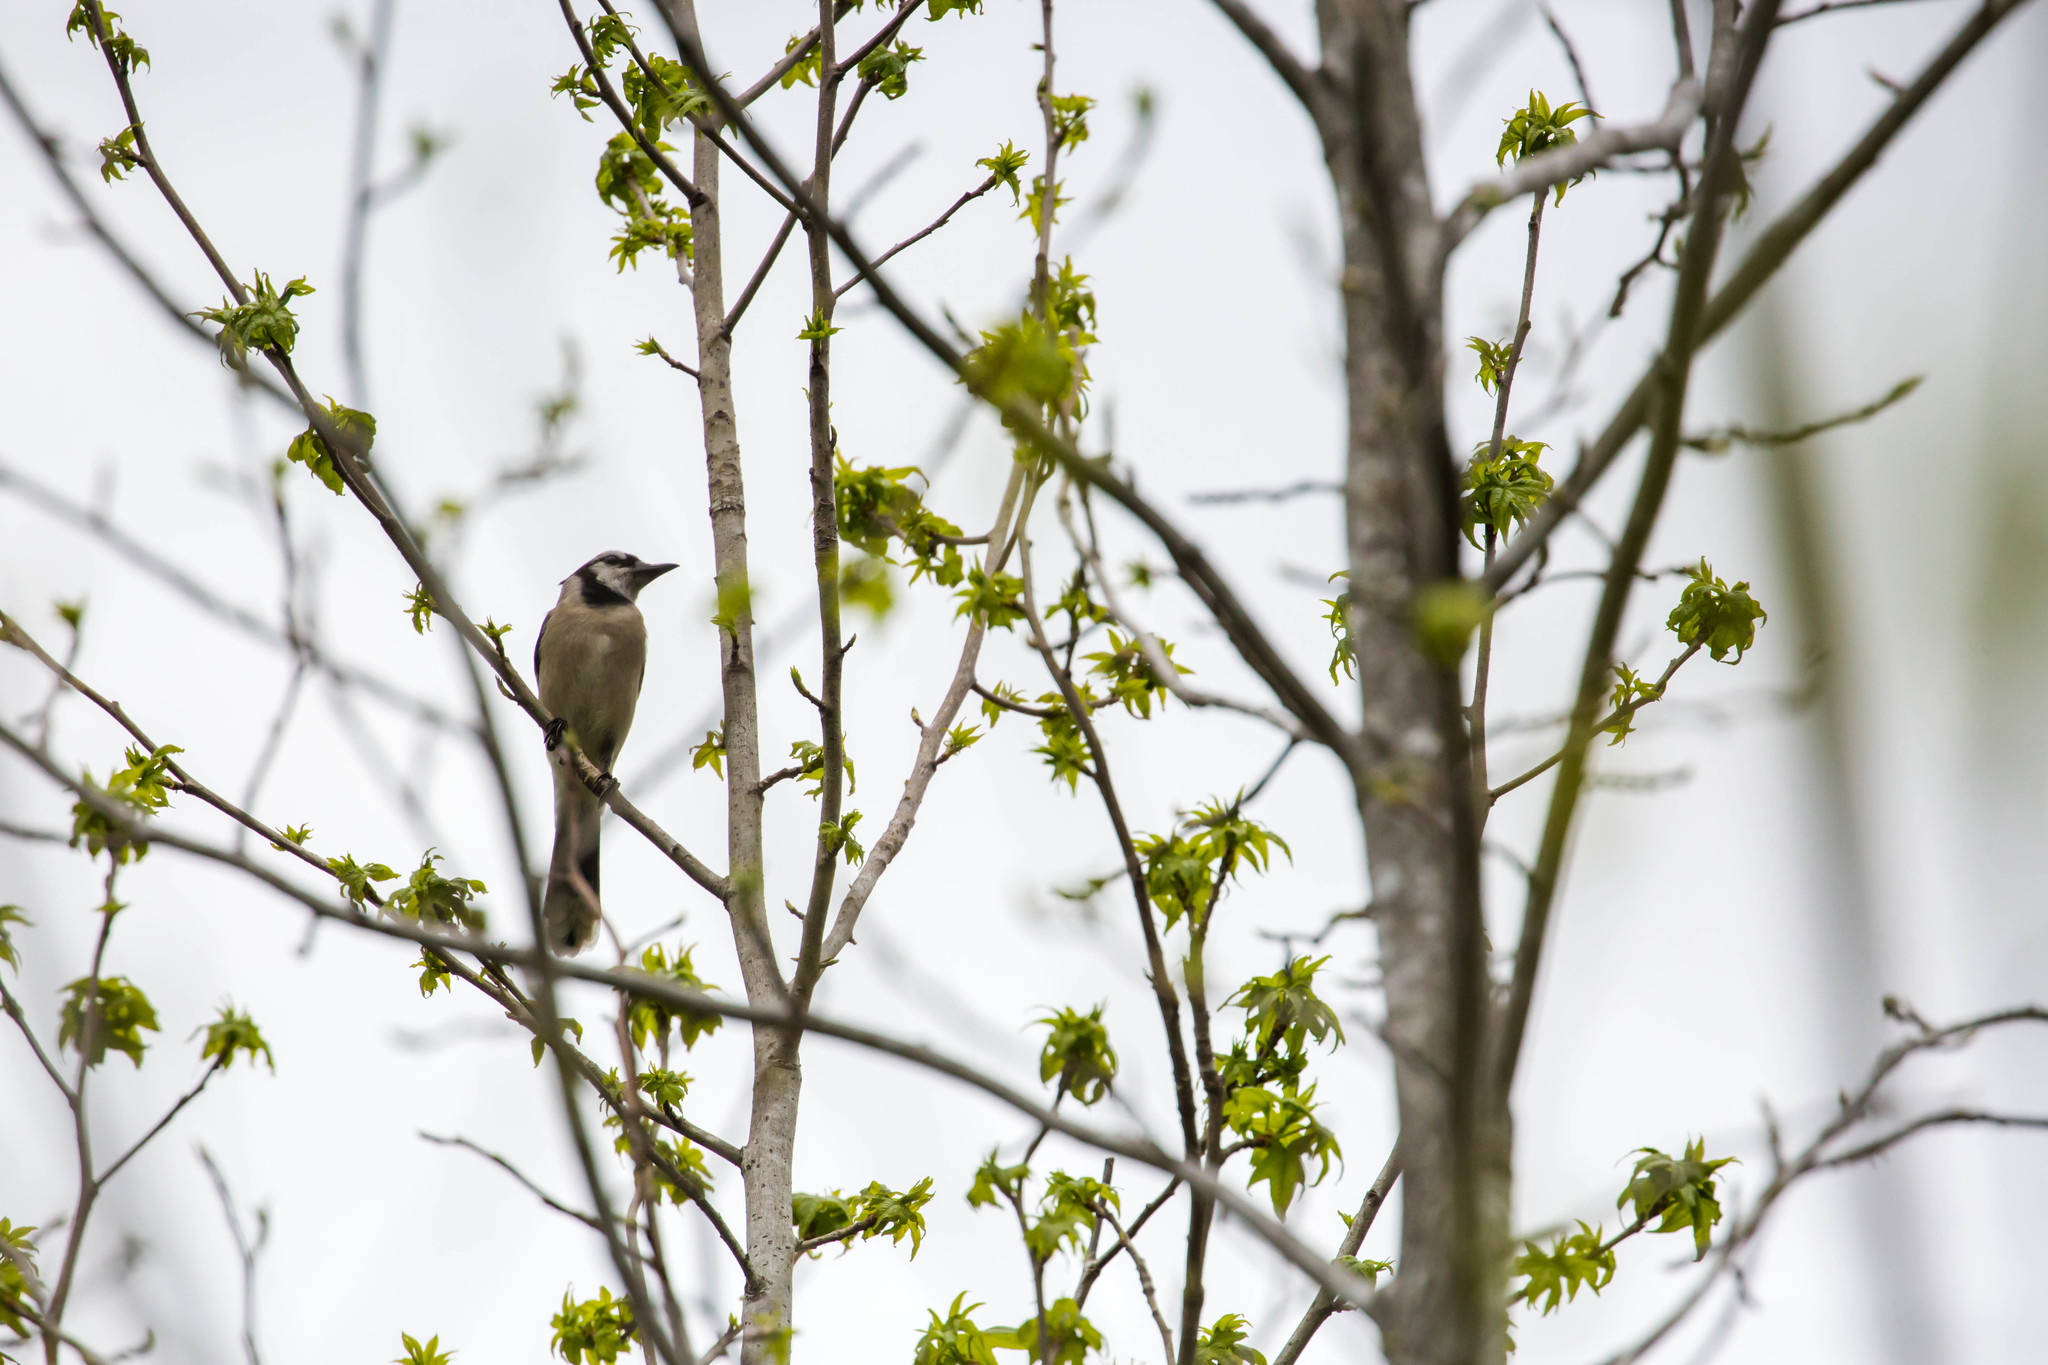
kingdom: Animalia
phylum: Chordata
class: Aves
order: Passeriformes
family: Corvidae
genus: Cyanocitta
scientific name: Cyanocitta cristata
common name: Blue jay
